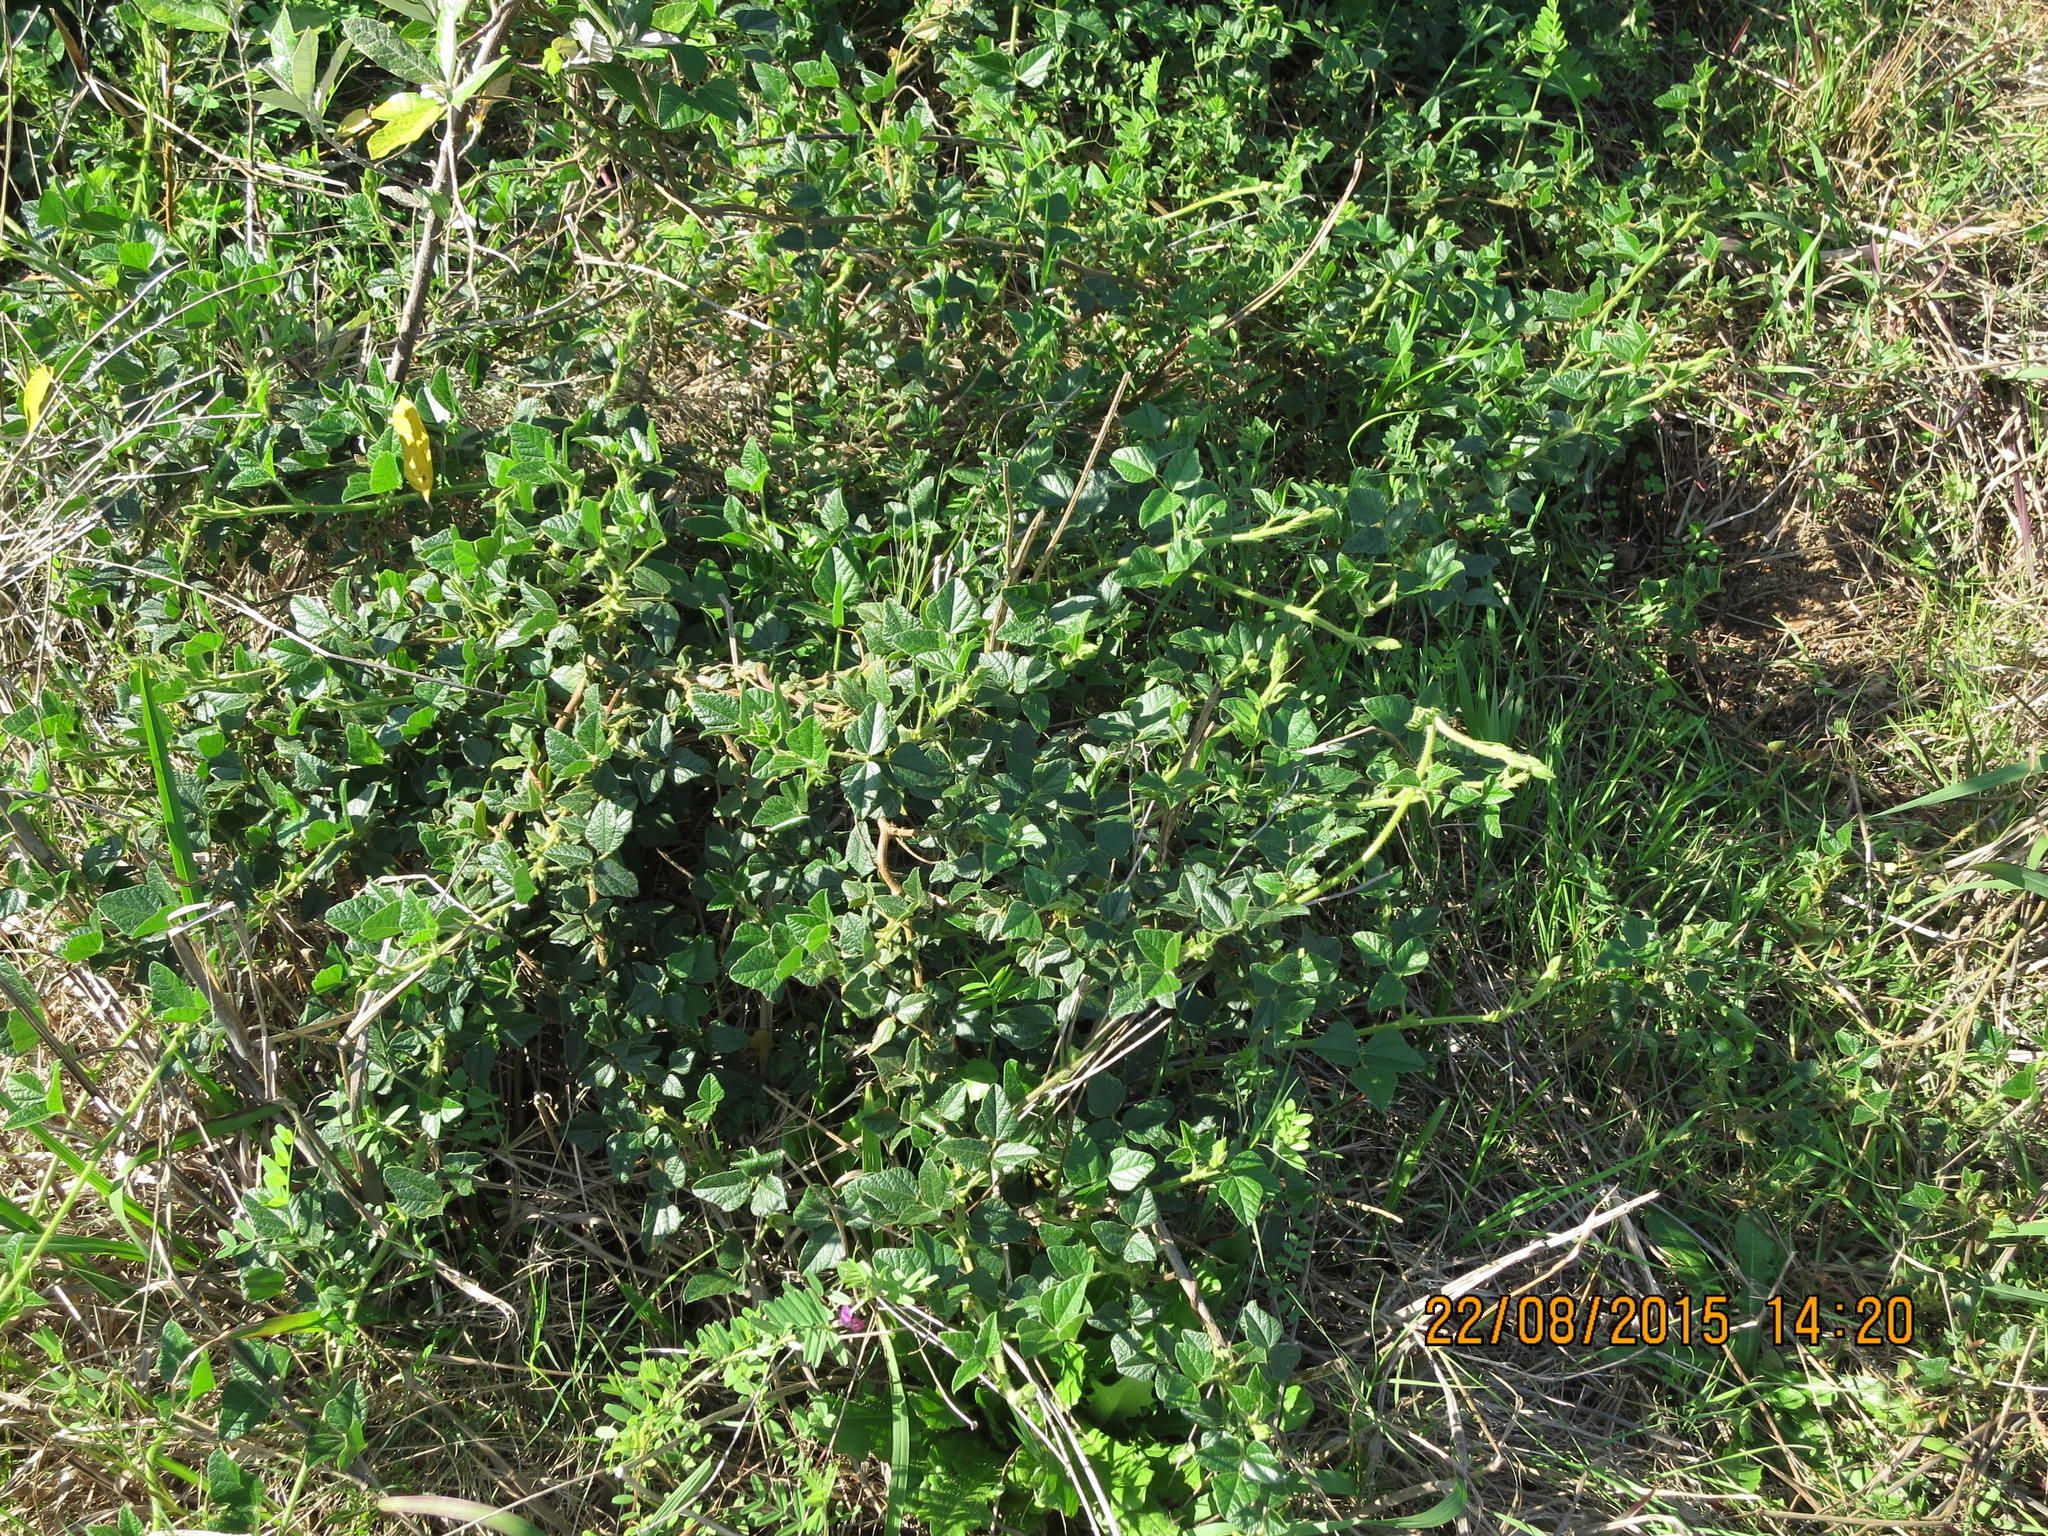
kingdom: Plantae
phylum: Tracheophyta
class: Magnoliopsida
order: Fabales
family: Fabaceae
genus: Bolusafra
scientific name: Bolusafra bituminosa
